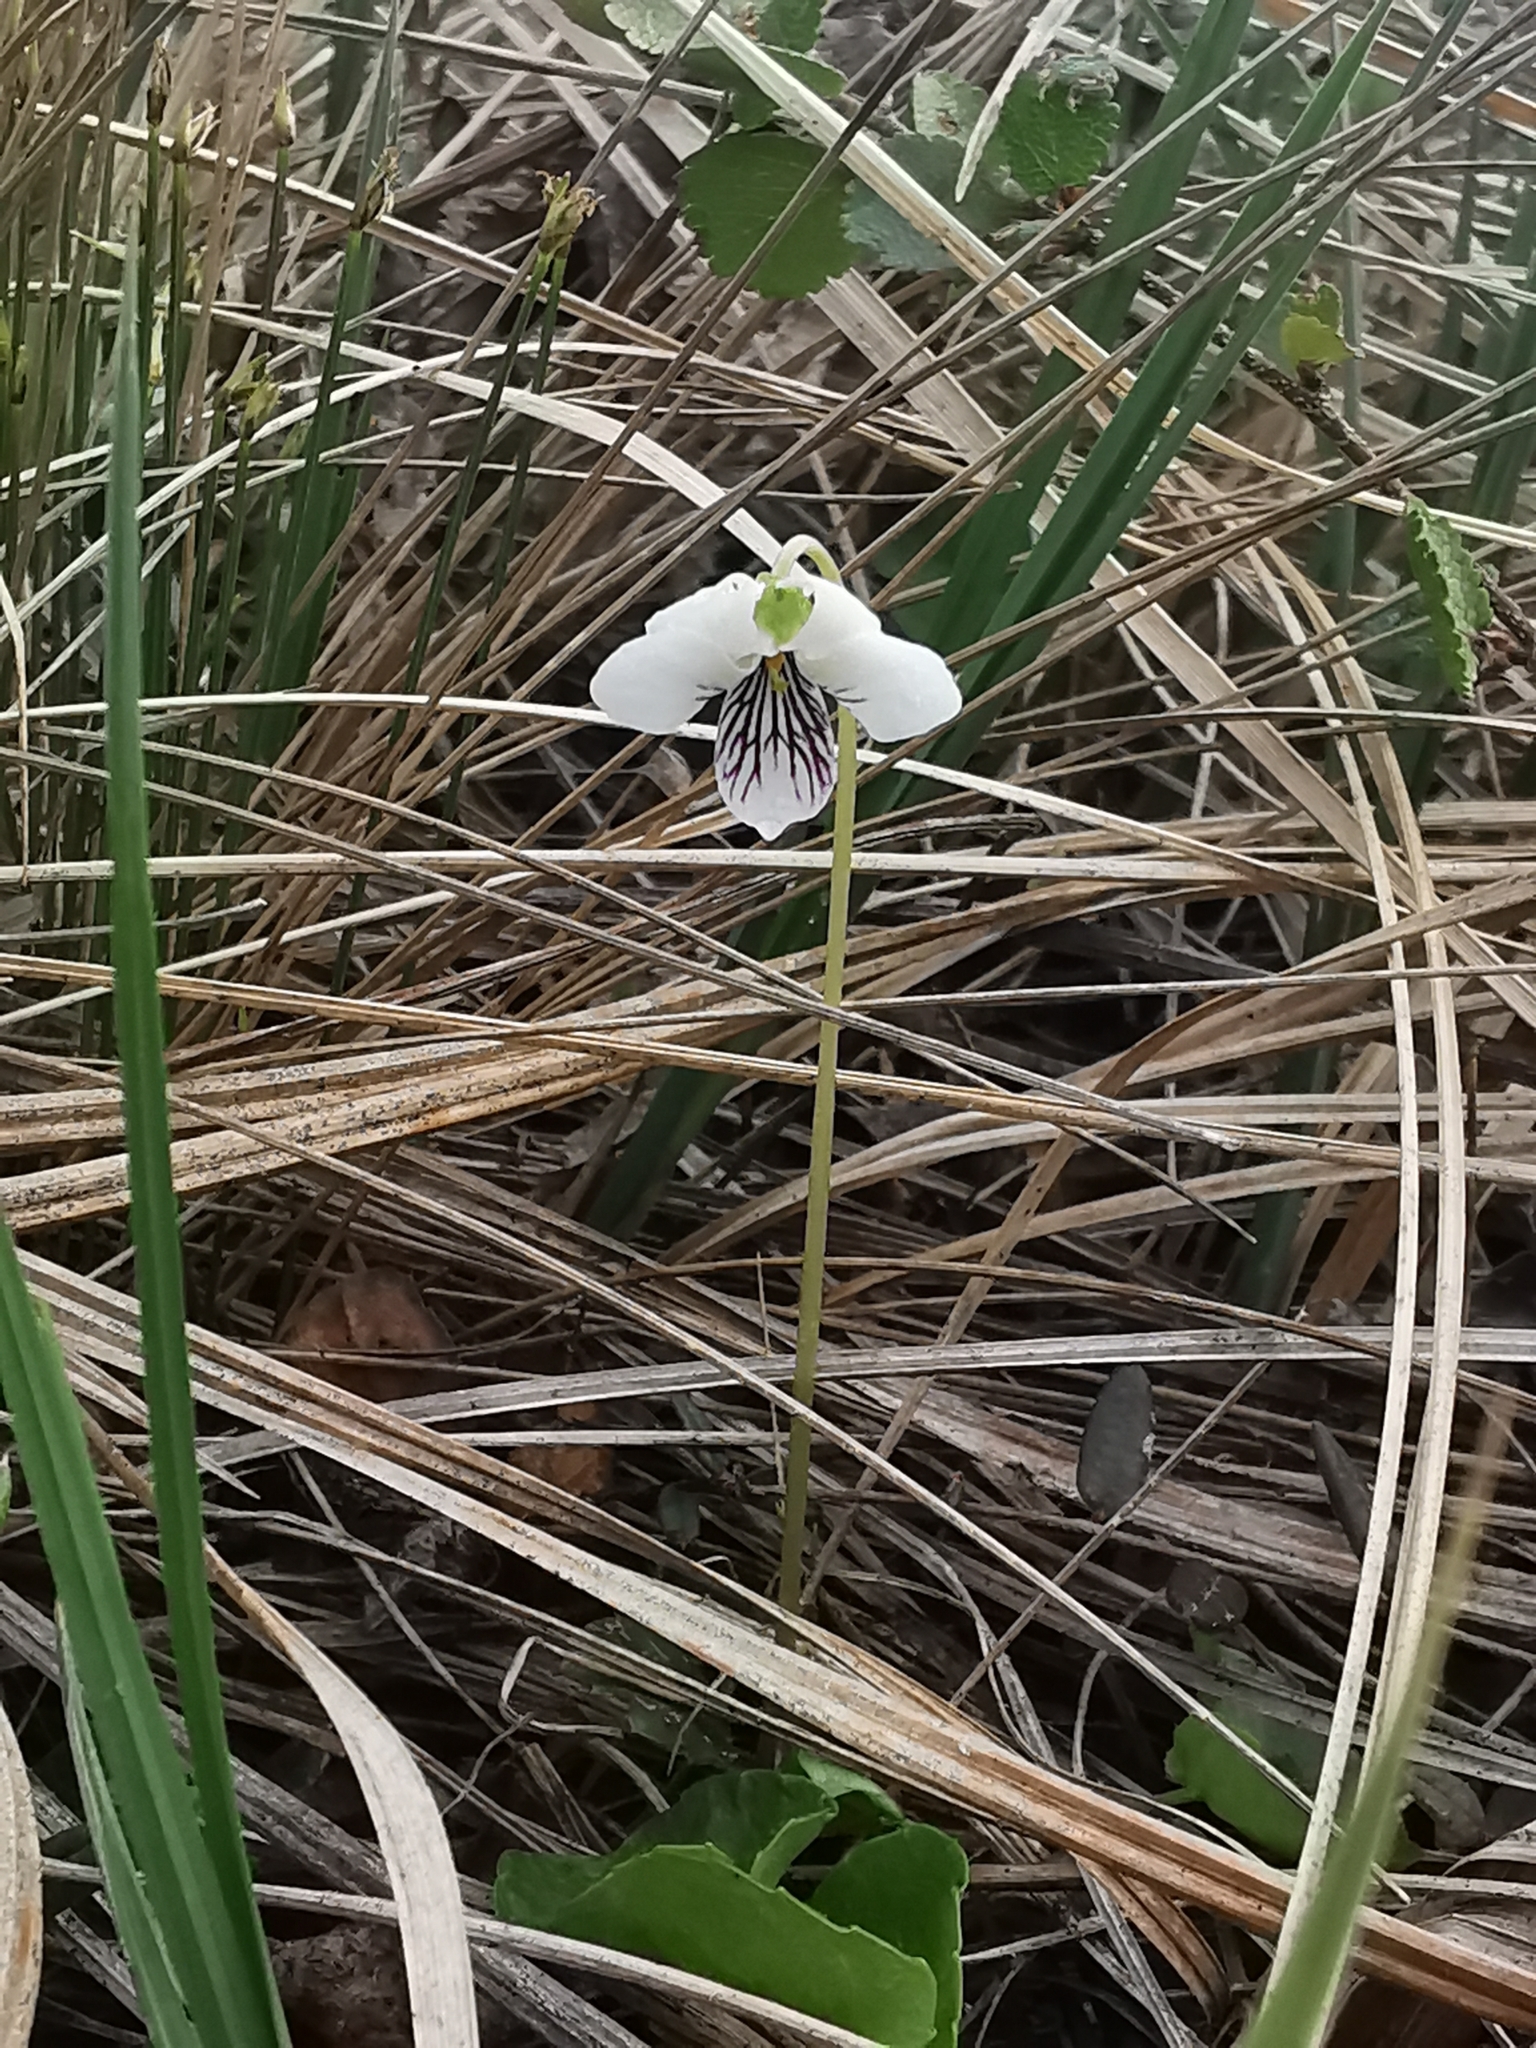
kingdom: Plantae
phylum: Tracheophyta
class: Magnoliopsida
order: Malpighiales
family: Violaceae
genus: Viola
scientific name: Viola hultenii
